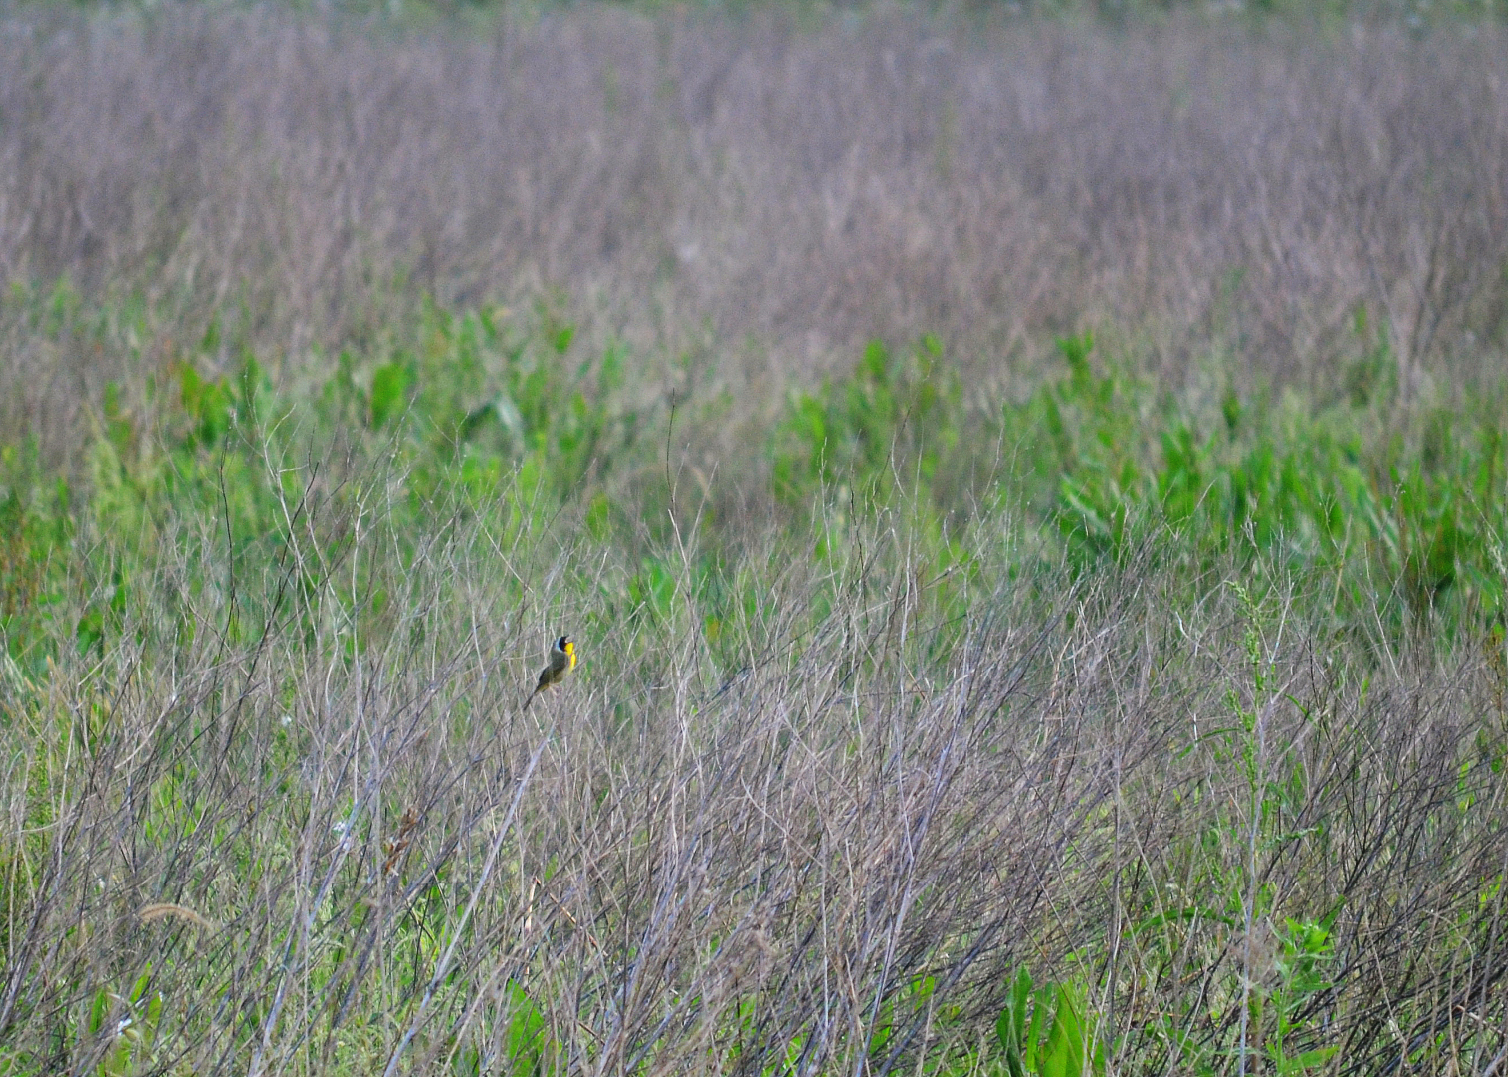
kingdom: Animalia
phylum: Chordata
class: Aves
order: Passeriformes
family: Parulidae
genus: Geothlypis
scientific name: Geothlypis trichas
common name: Common yellowthroat
